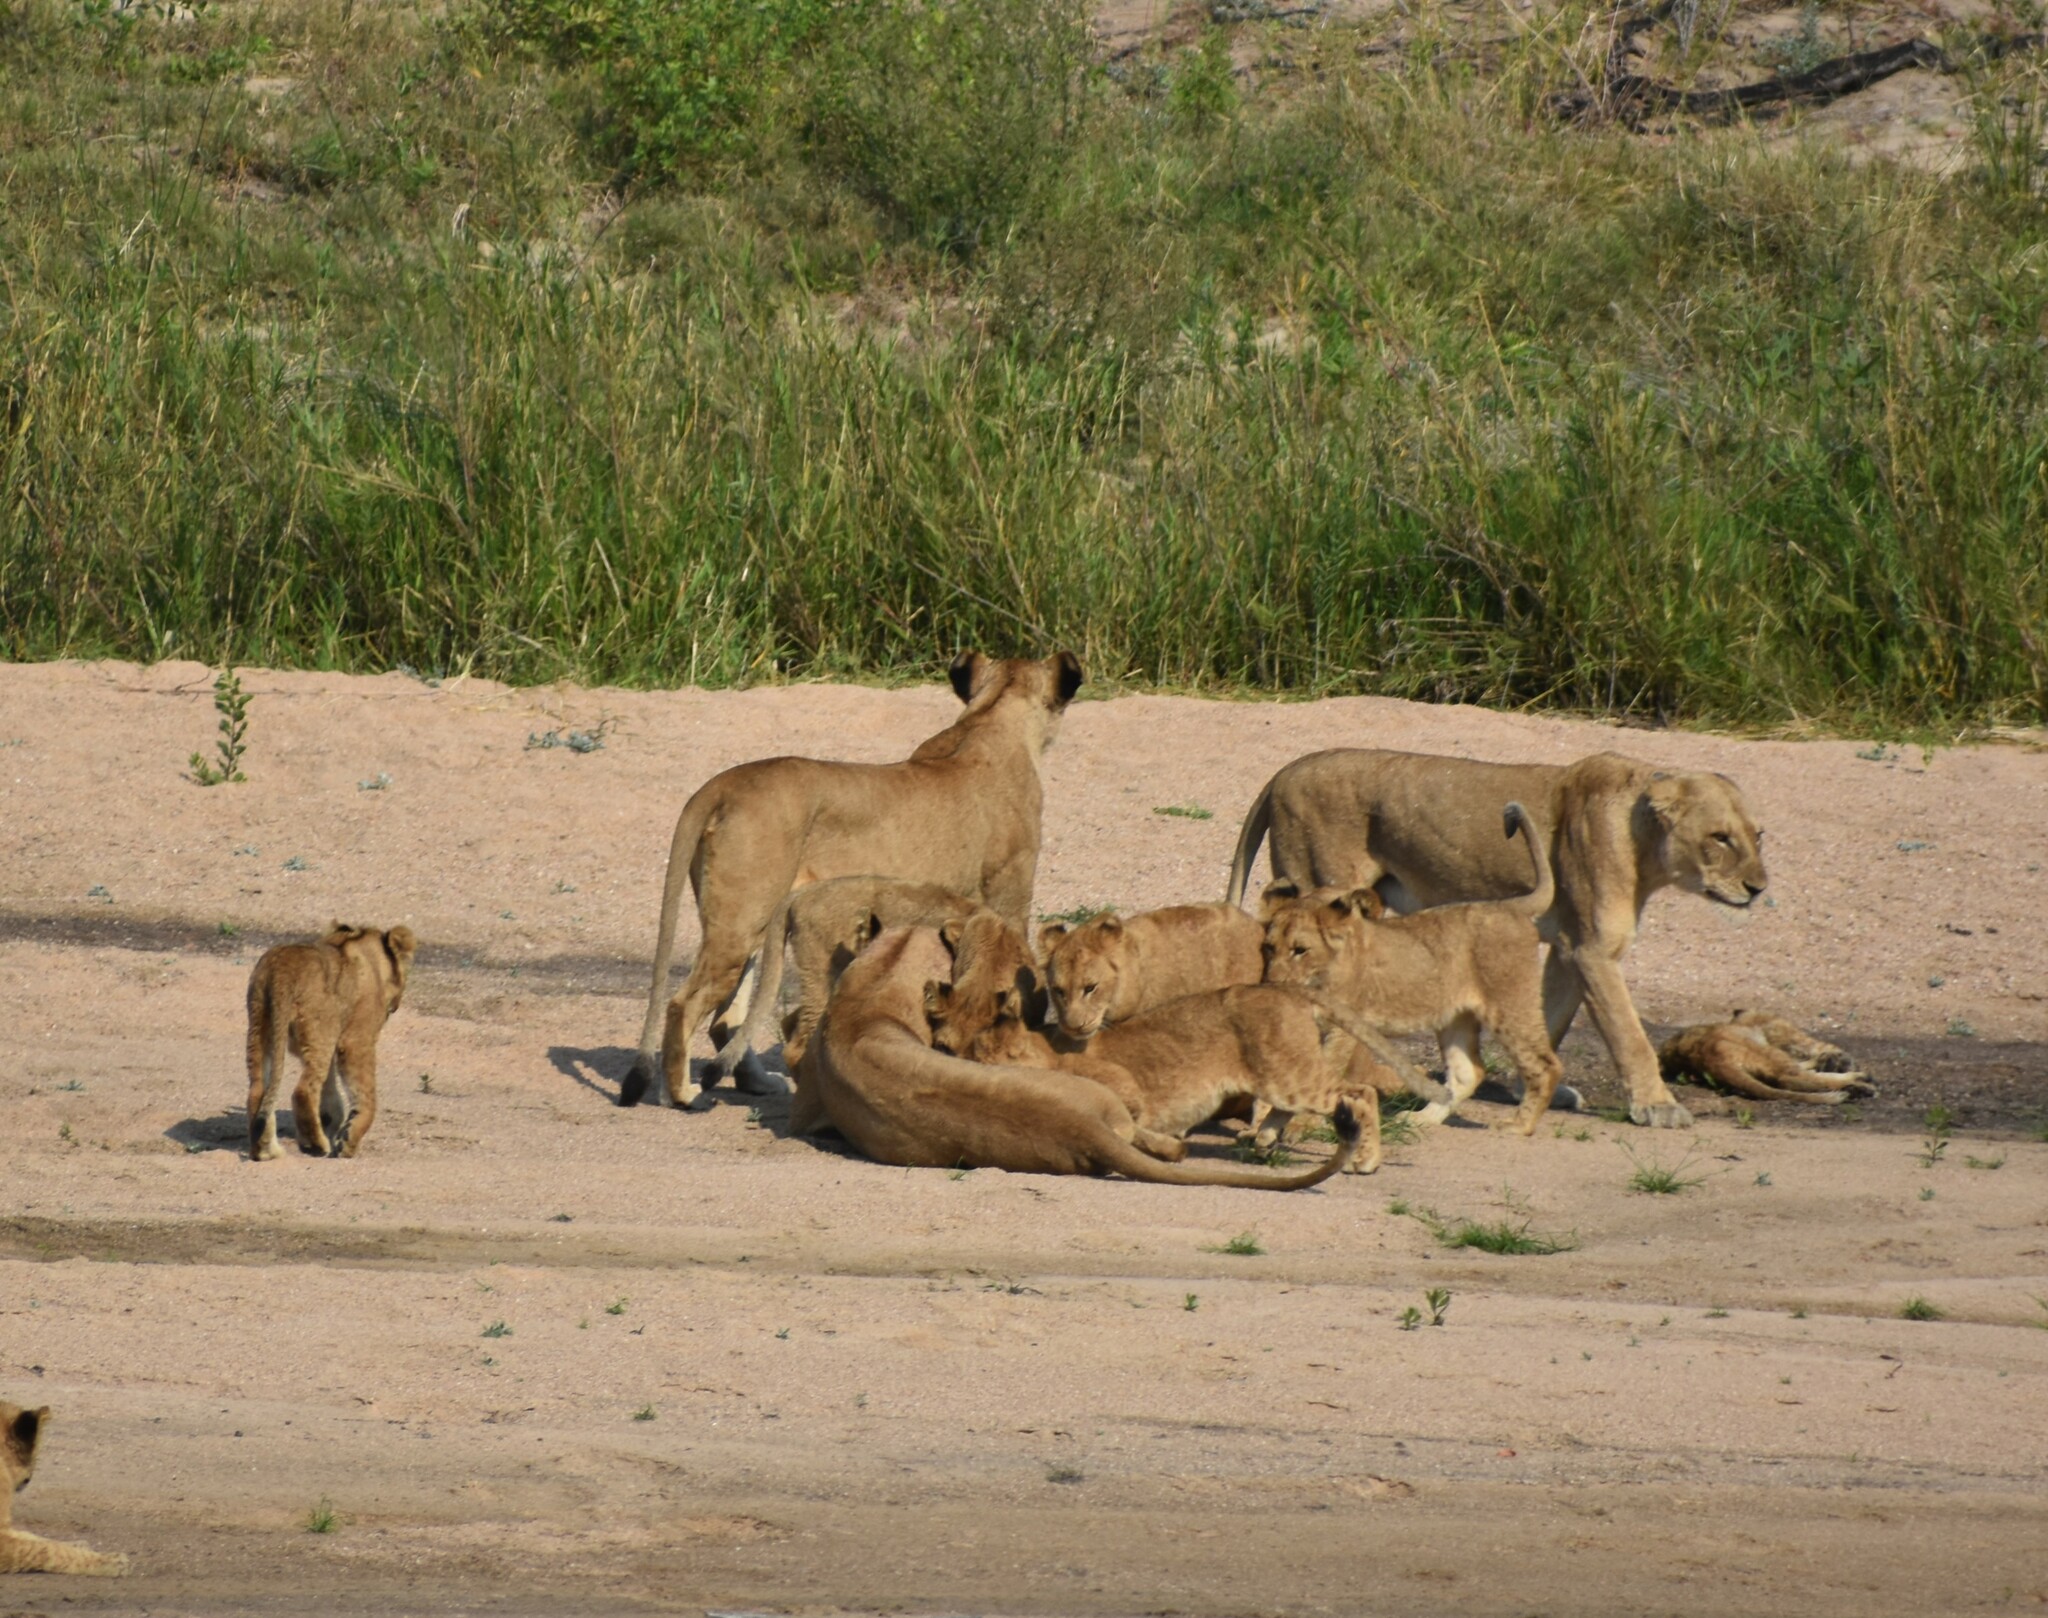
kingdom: Animalia
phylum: Chordata
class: Mammalia
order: Carnivora
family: Felidae
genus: Panthera
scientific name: Panthera leo
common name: Lion
